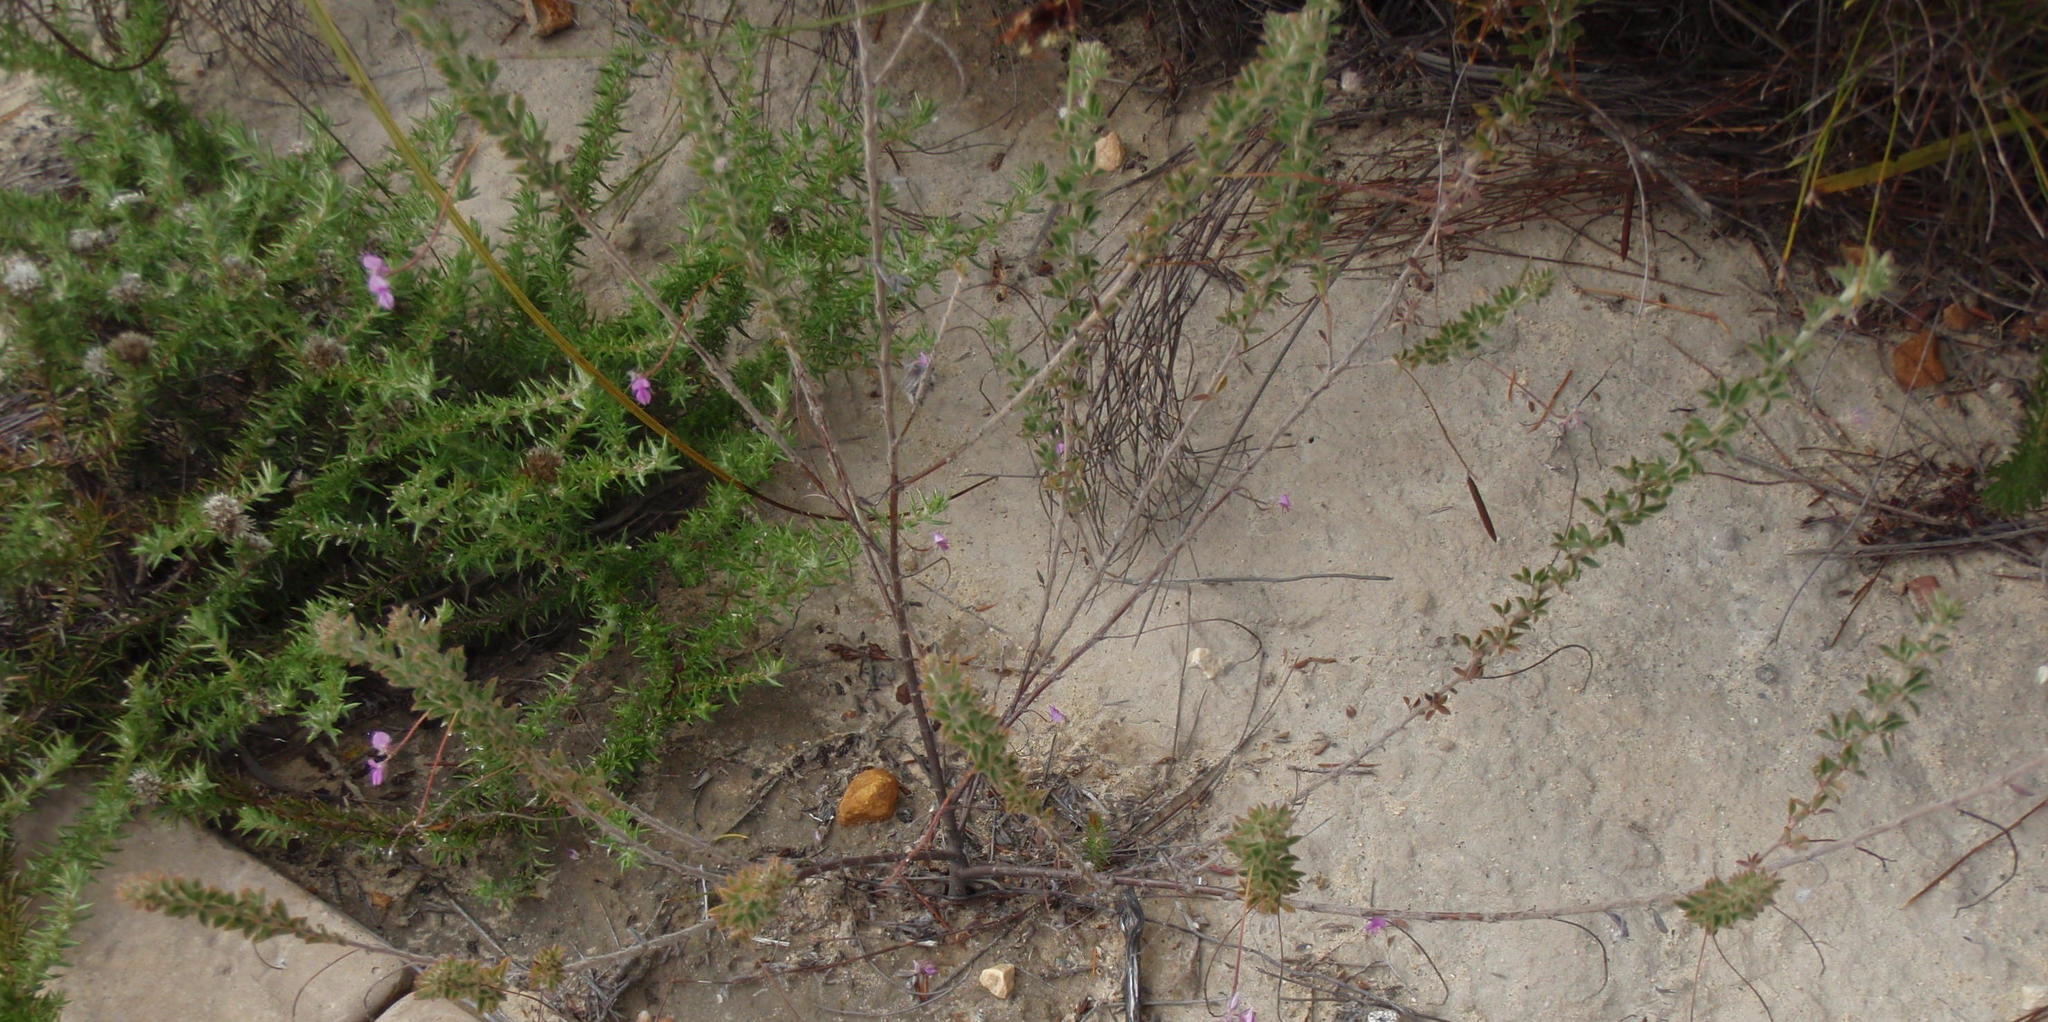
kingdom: Plantae
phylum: Tracheophyta
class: Magnoliopsida
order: Fabales
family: Fabaceae
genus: Indigofera
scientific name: Indigofera alopecuroides
